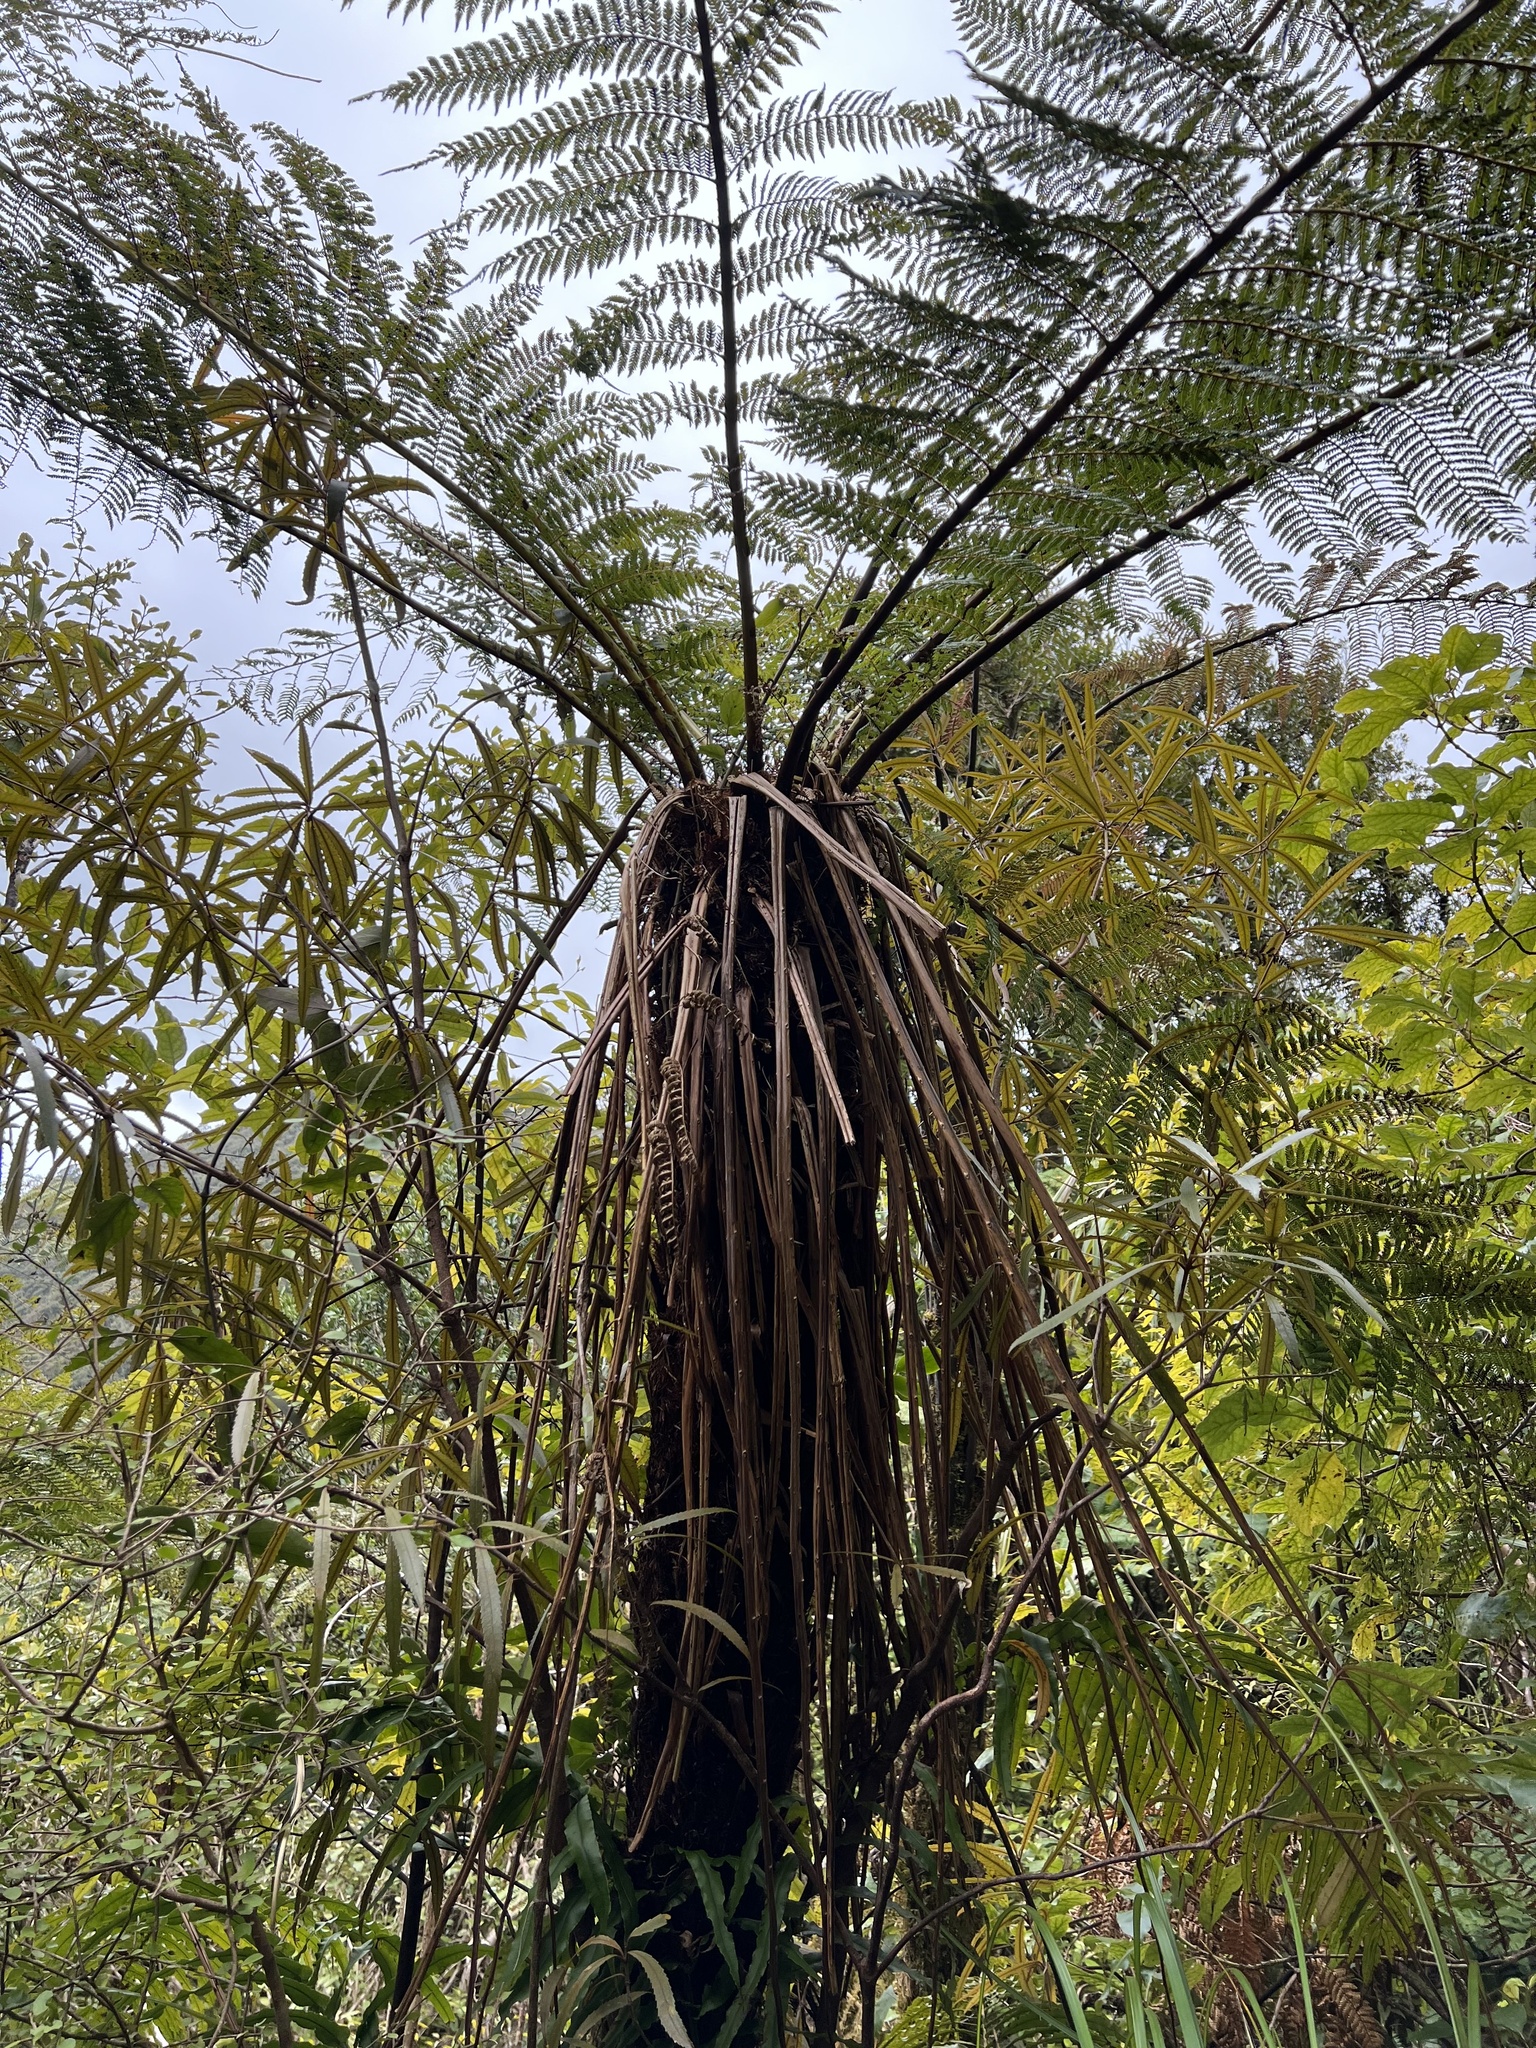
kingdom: Plantae
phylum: Tracheophyta
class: Polypodiopsida
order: Cyatheales
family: Cyatheaceae
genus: Alsophila
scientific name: Alsophila smithii
